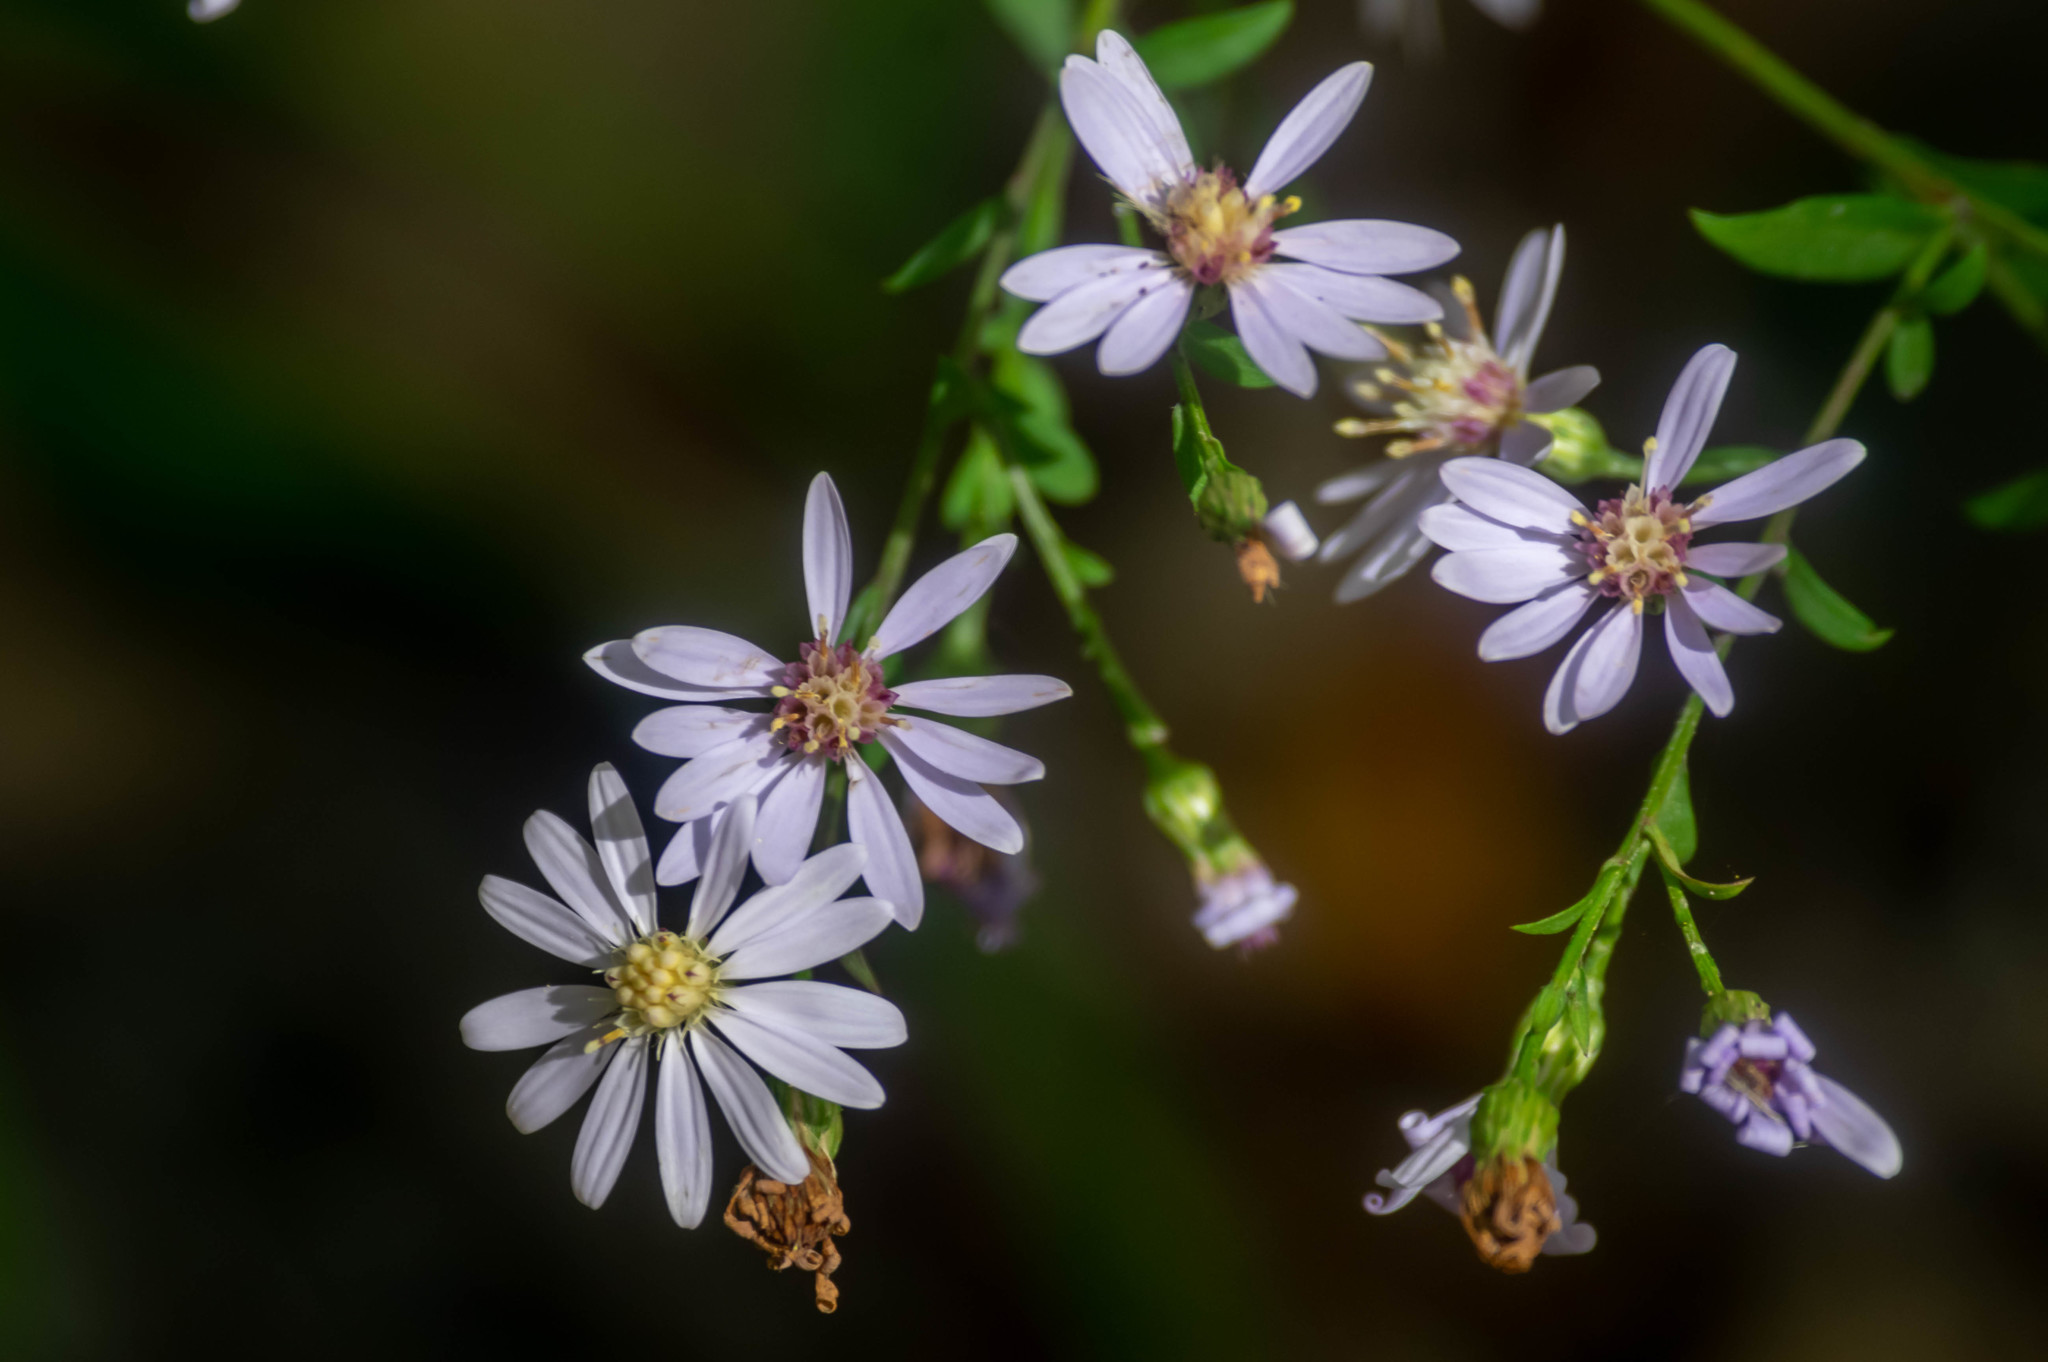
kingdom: Plantae
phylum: Tracheophyta
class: Magnoliopsida
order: Asterales
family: Asteraceae
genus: Symphyotrichum
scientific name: Symphyotrichum cordifolium
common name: Beeweed
